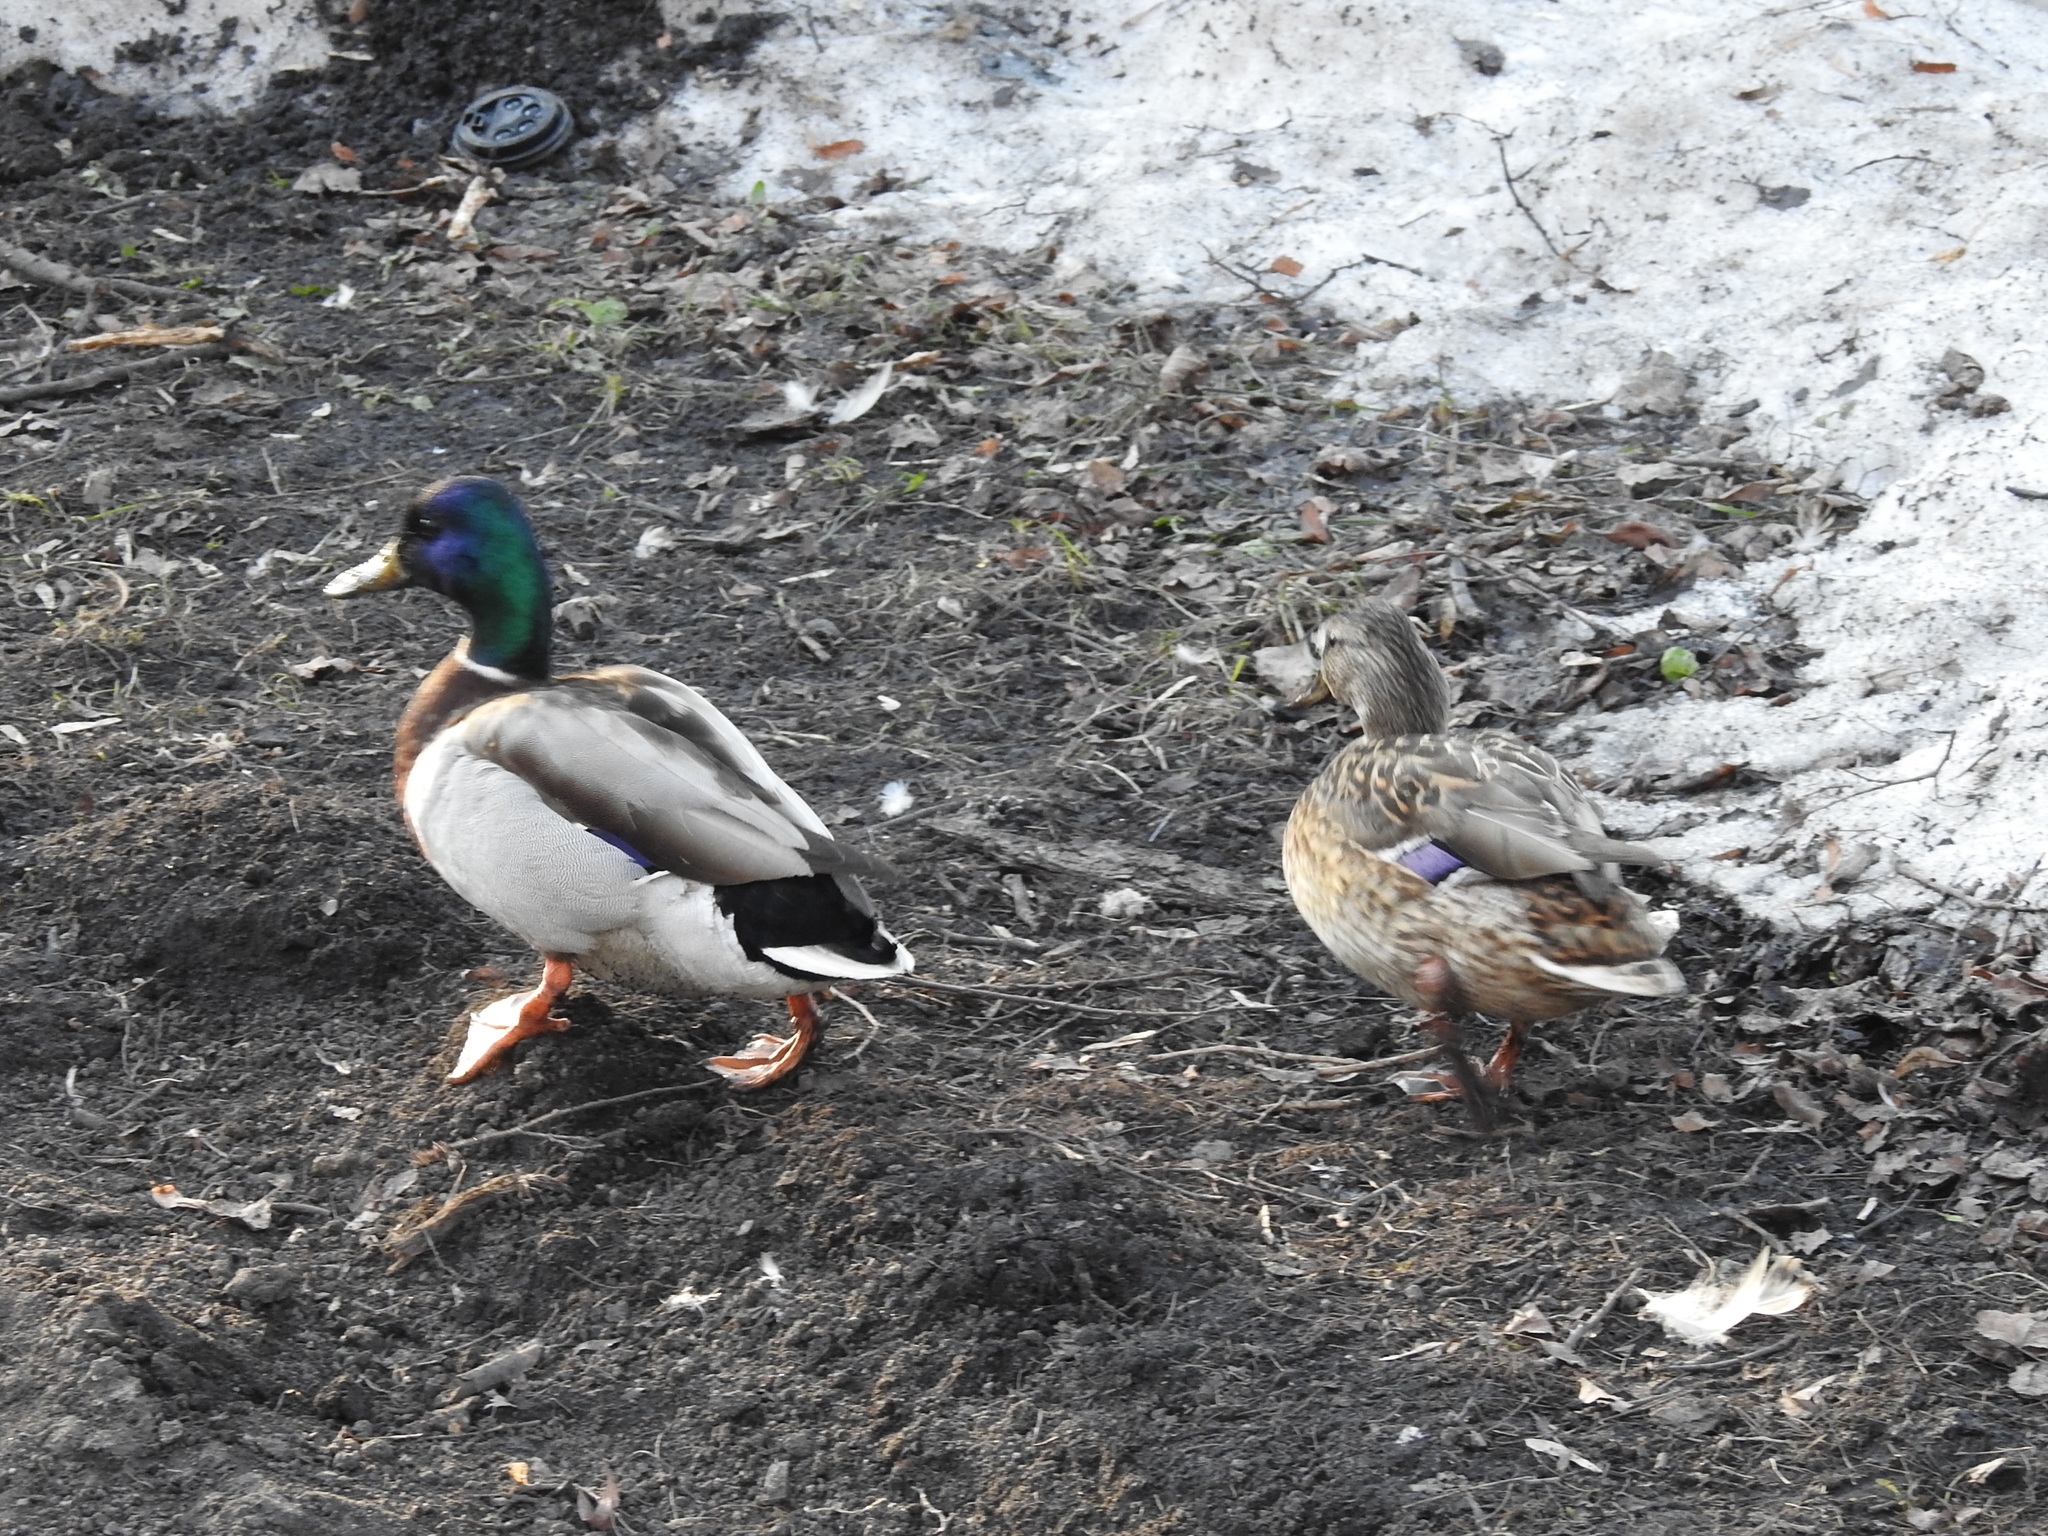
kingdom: Animalia
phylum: Chordata
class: Aves
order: Anseriformes
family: Anatidae
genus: Anas
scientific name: Anas platyrhynchos
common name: Mallard
